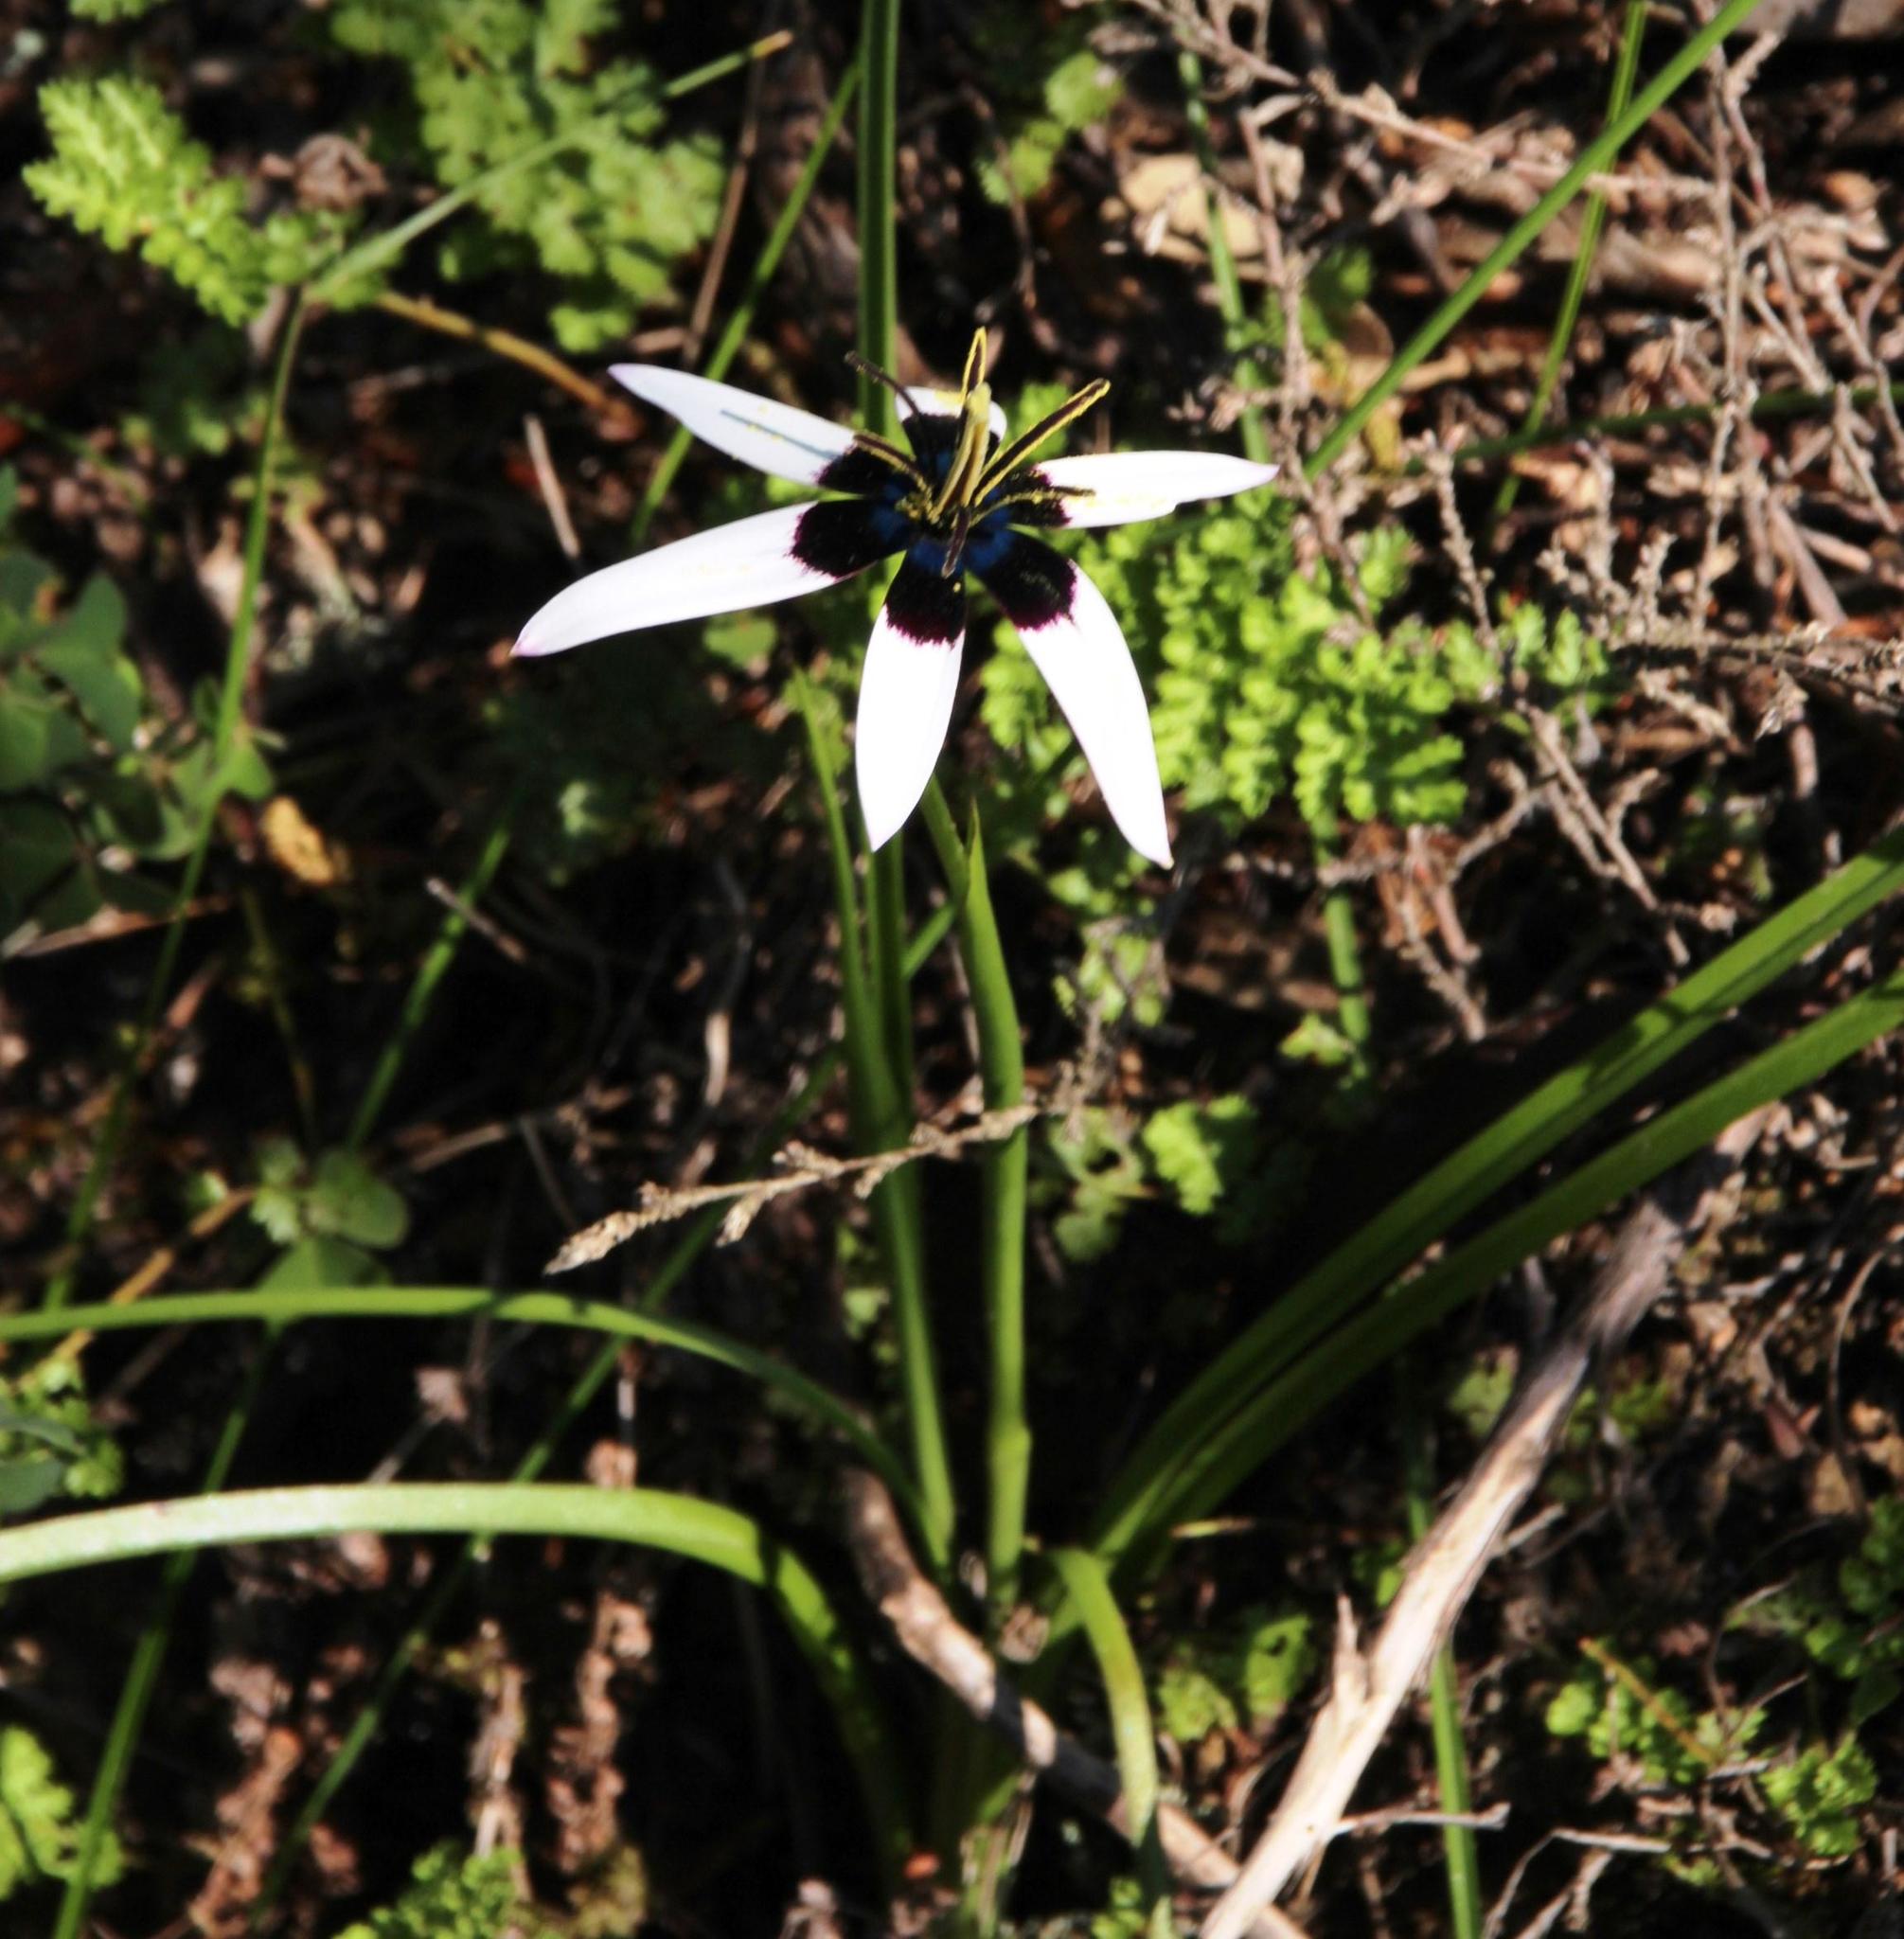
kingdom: Plantae
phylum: Tracheophyta
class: Liliopsida
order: Asparagales
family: Hypoxidaceae
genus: Pauridia
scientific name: Pauridia capensis
